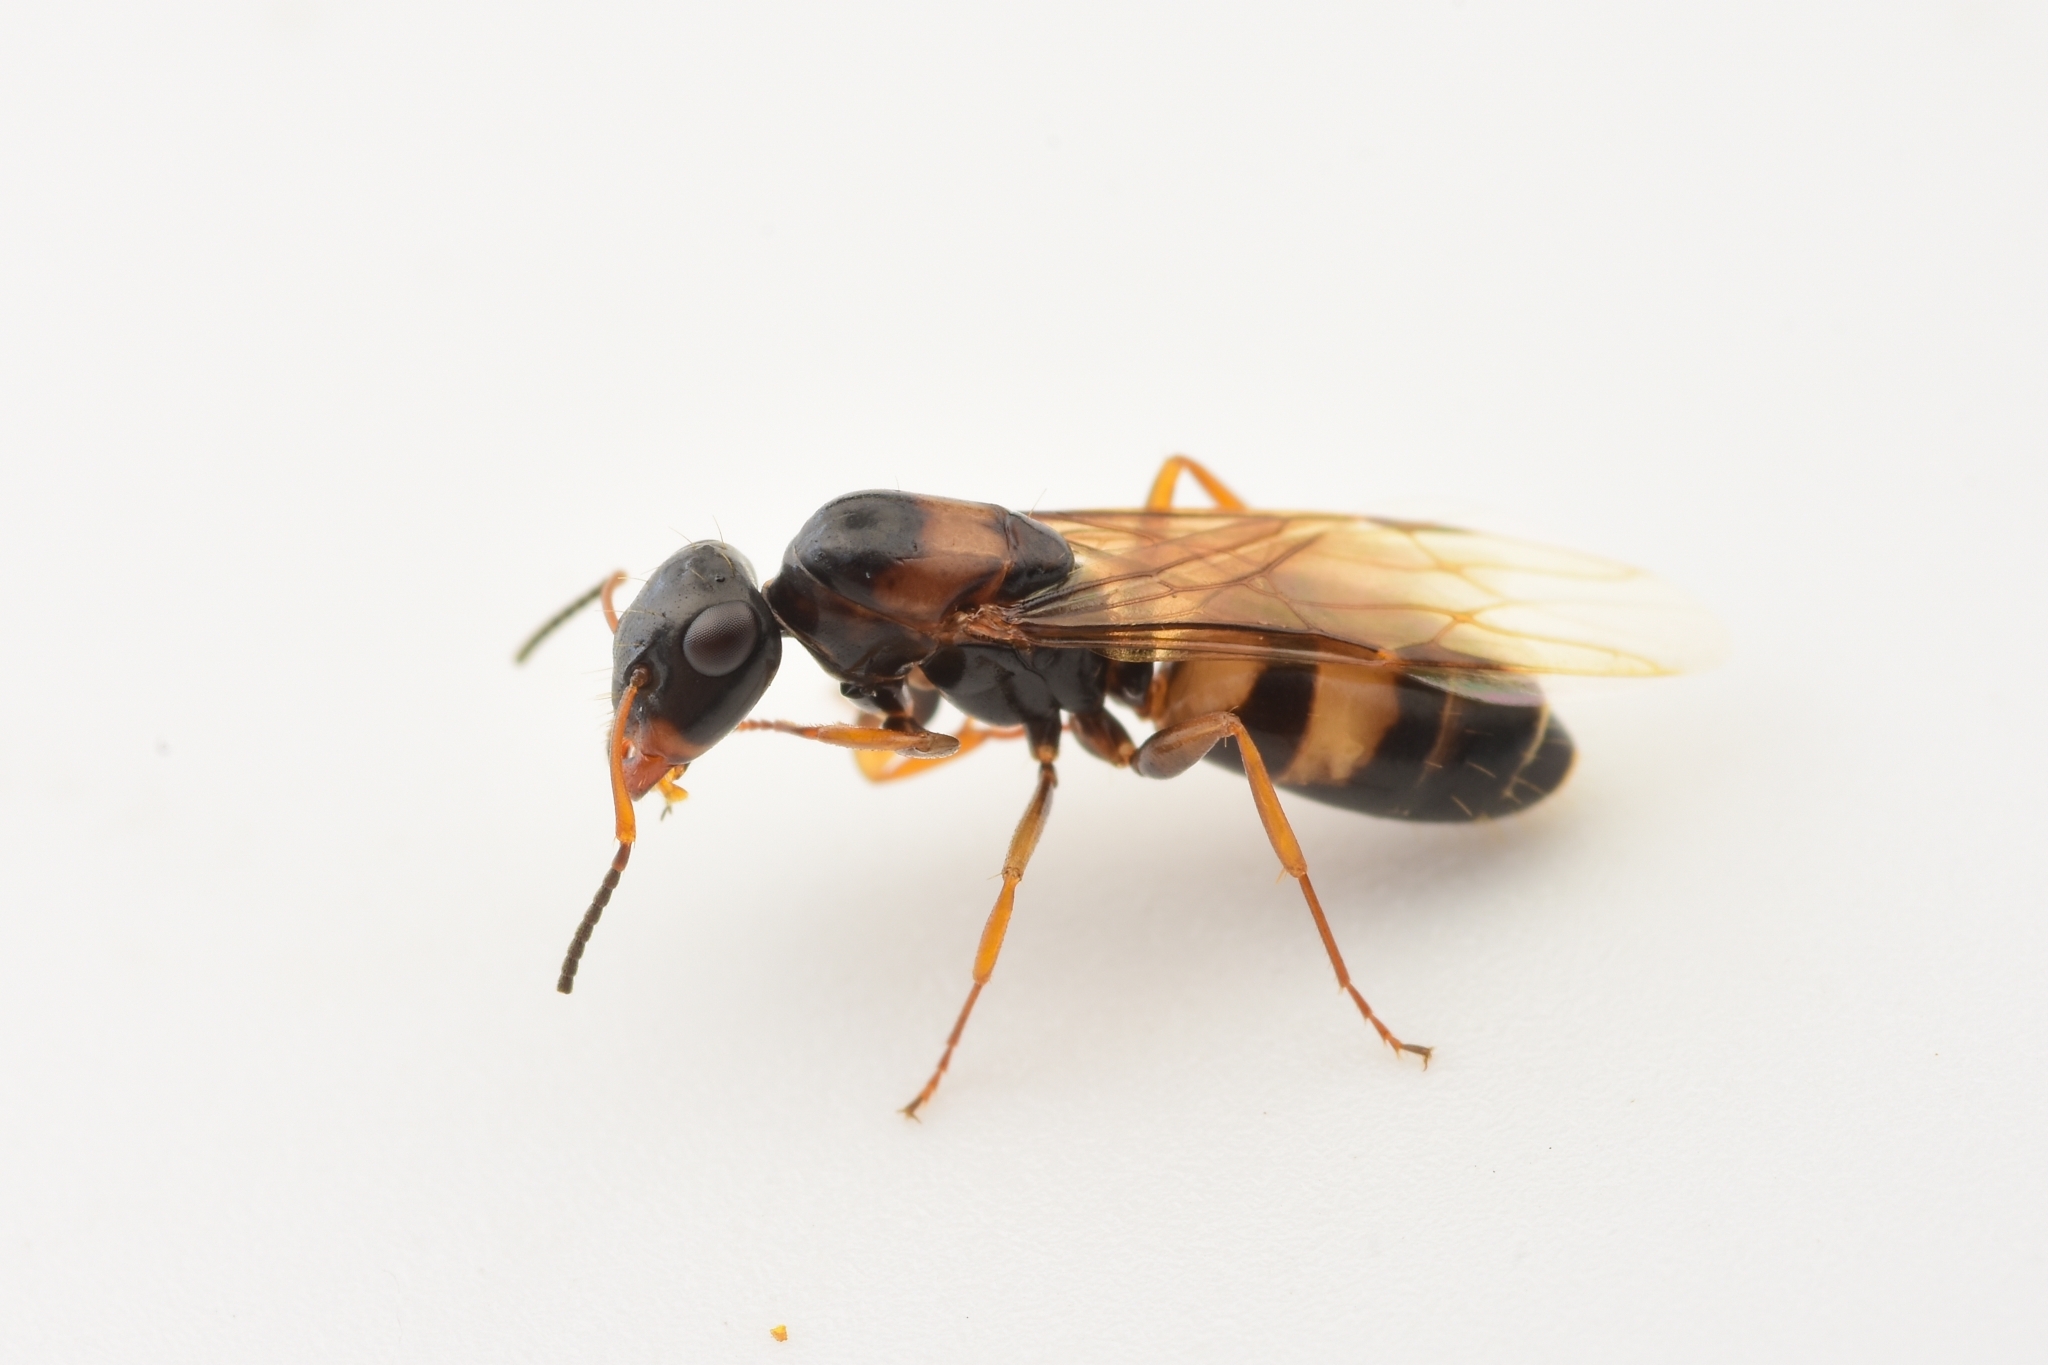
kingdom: Animalia
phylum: Arthropoda
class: Insecta
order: Hymenoptera
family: Formicidae
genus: Opisthopsis
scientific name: Opisthopsis respiciens
